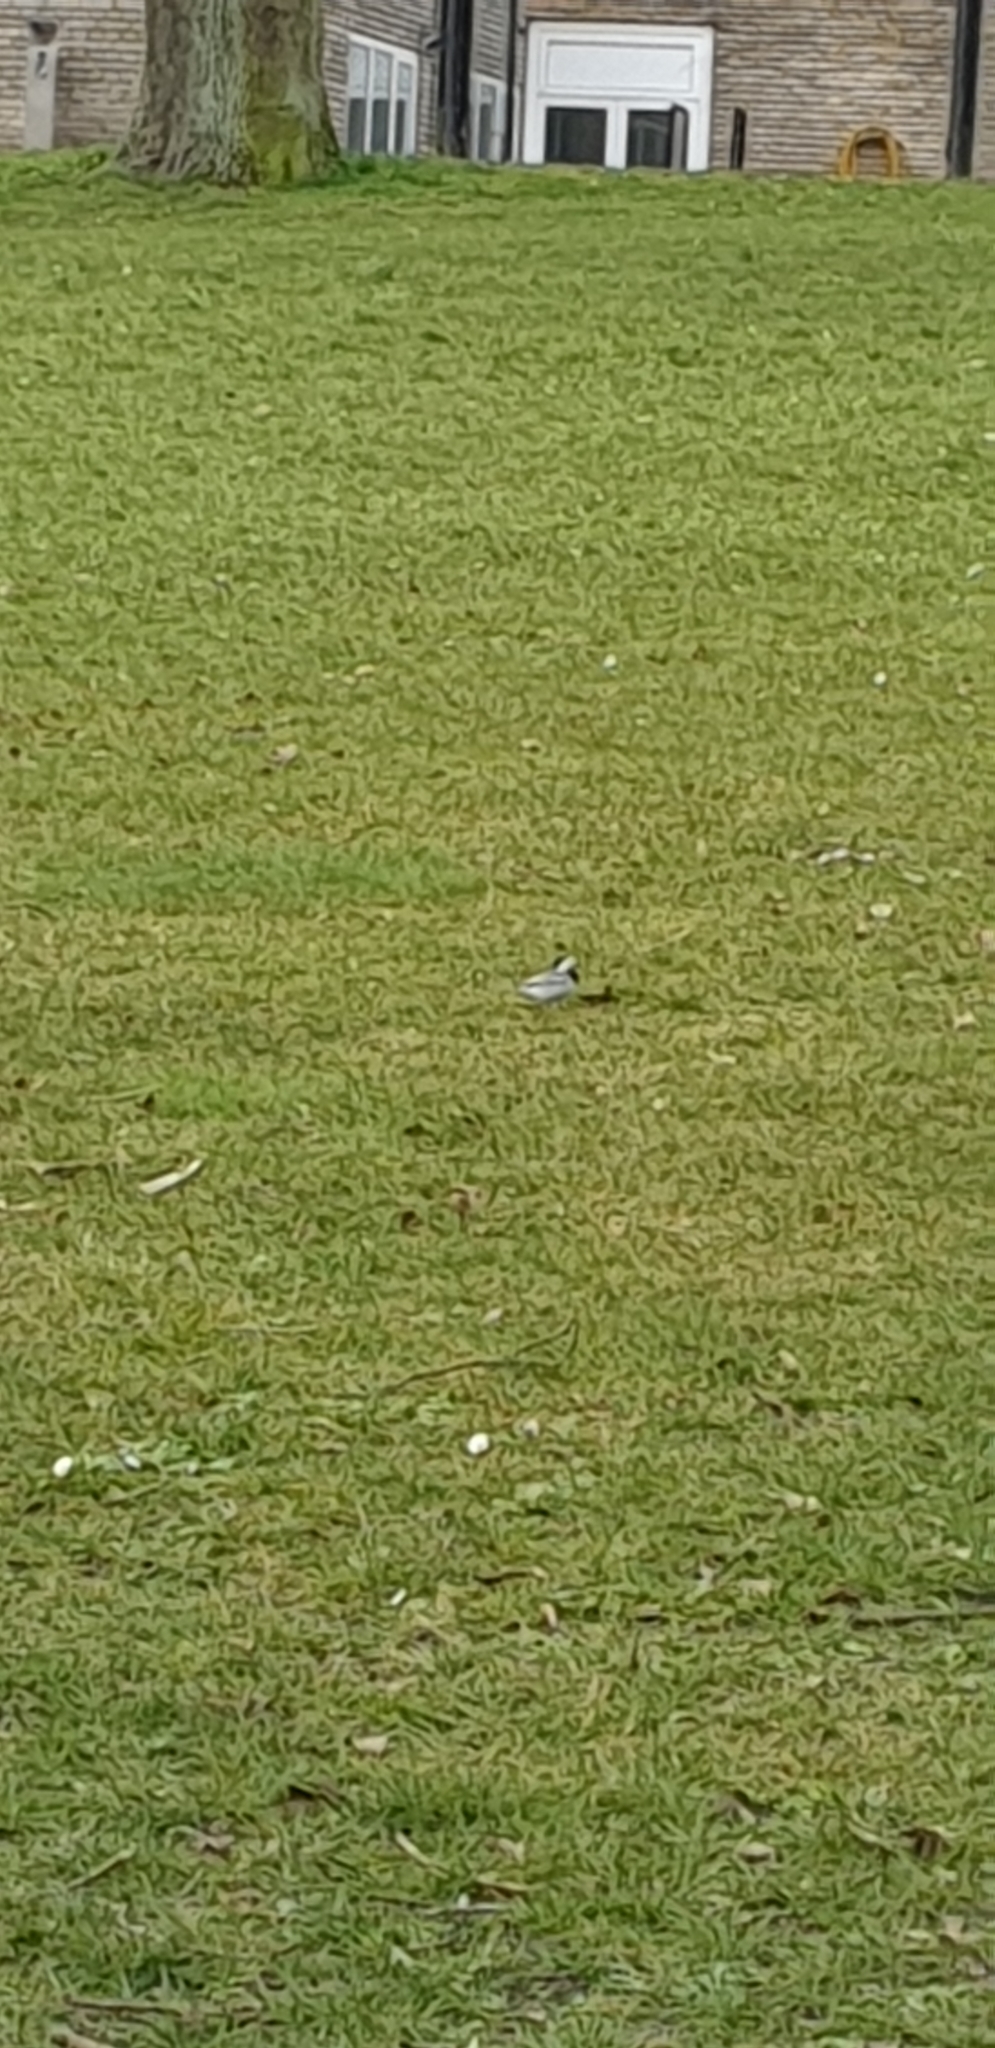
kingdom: Animalia
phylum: Chordata
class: Aves
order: Passeriformes
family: Motacillidae
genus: Motacilla
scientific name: Motacilla alba
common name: White wagtail
